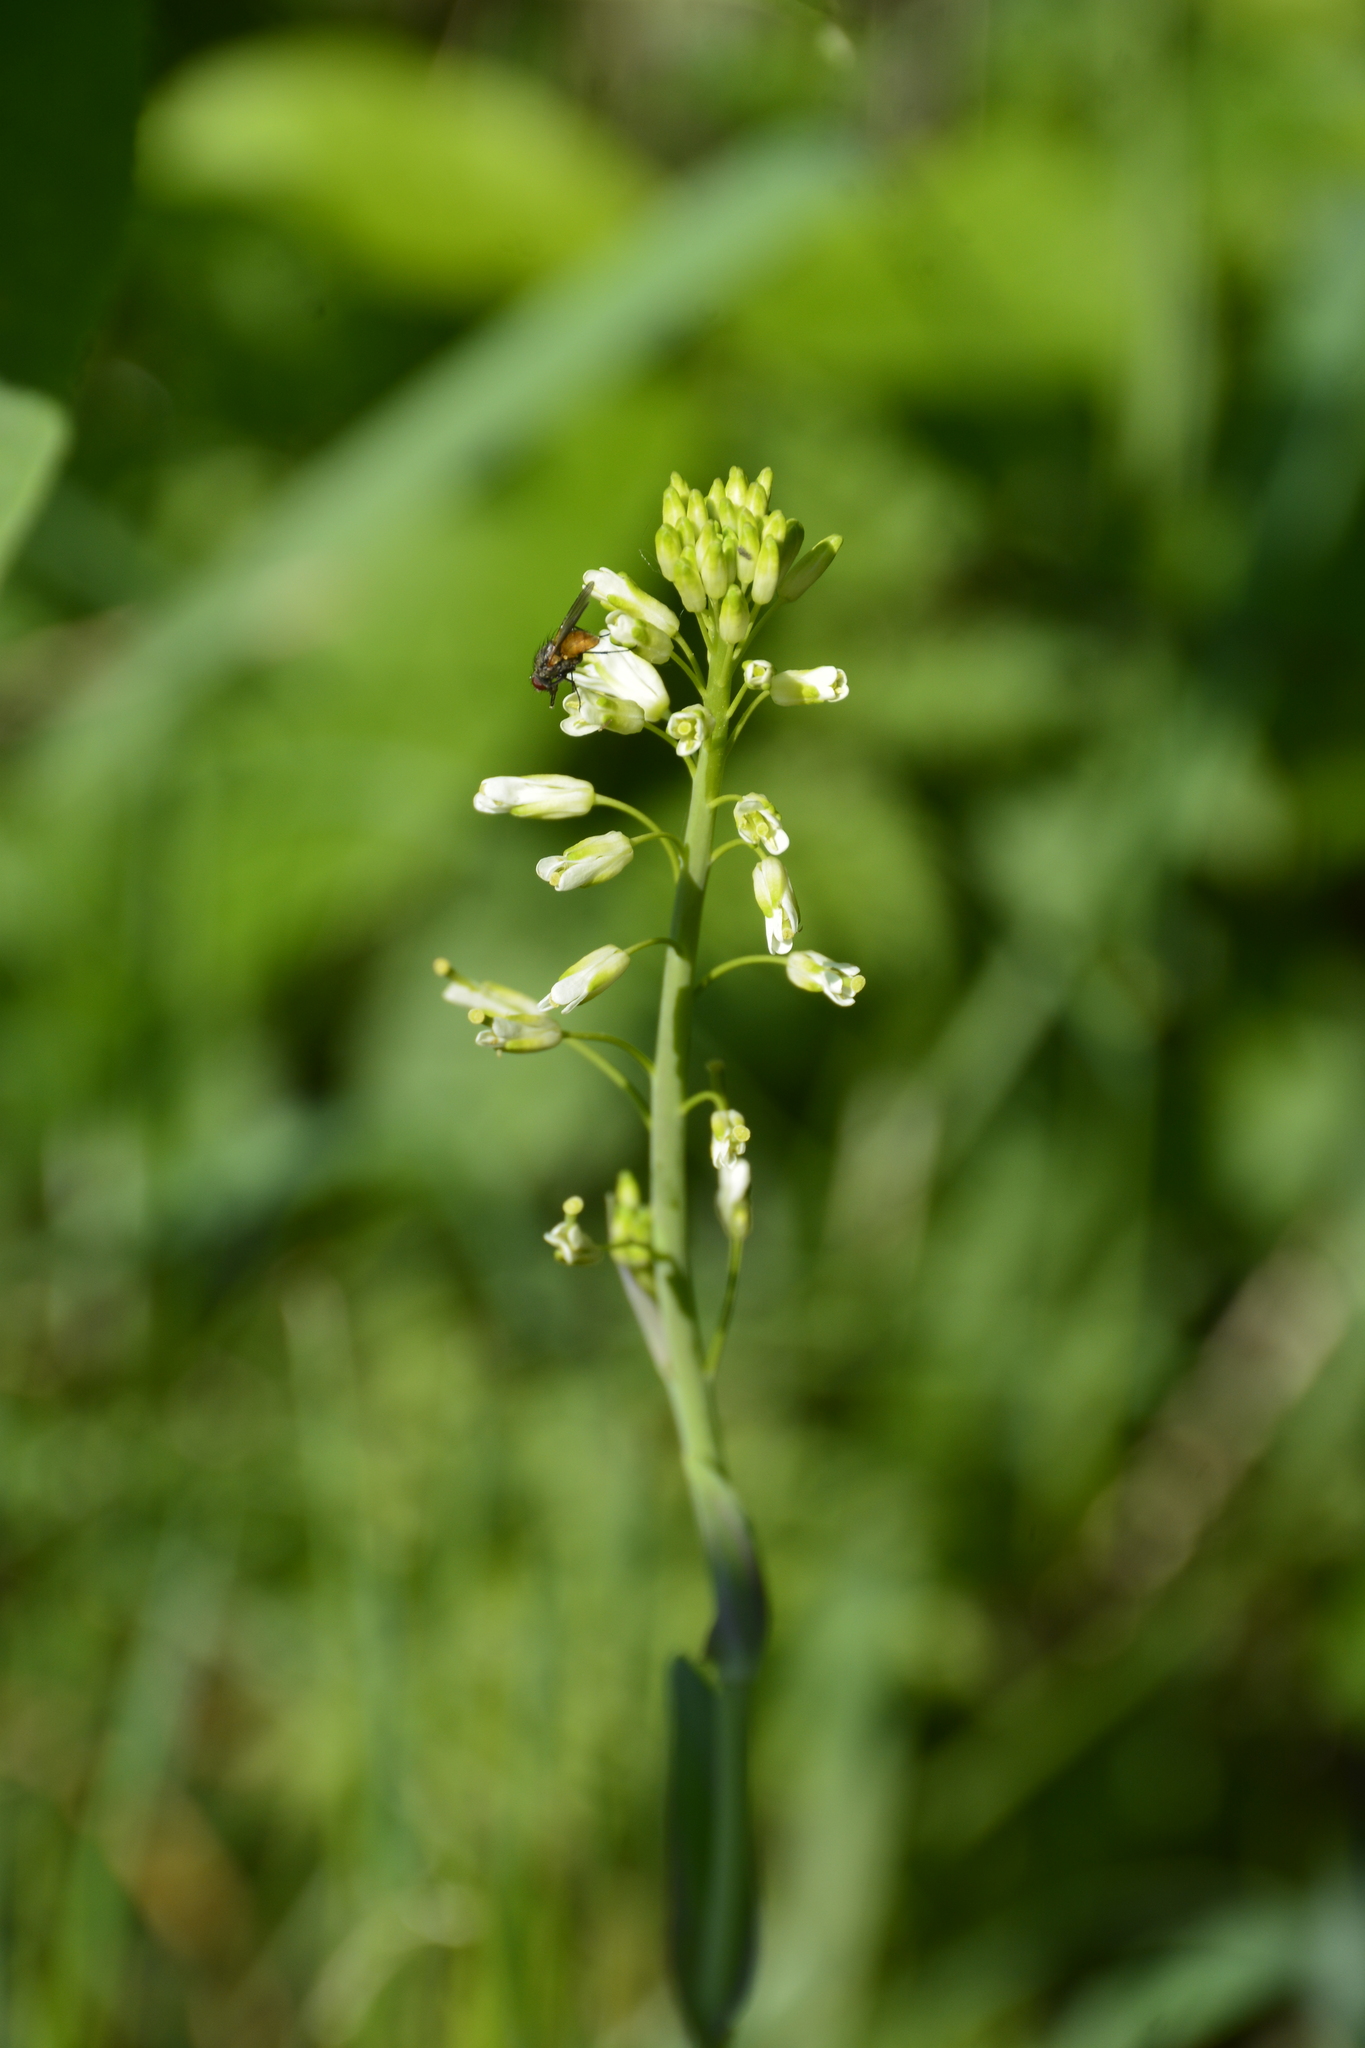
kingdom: Plantae
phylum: Tracheophyta
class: Magnoliopsida
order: Brassicales
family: Brassicaceae
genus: Turritis
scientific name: Turritis glabra
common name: Tower rockcress
